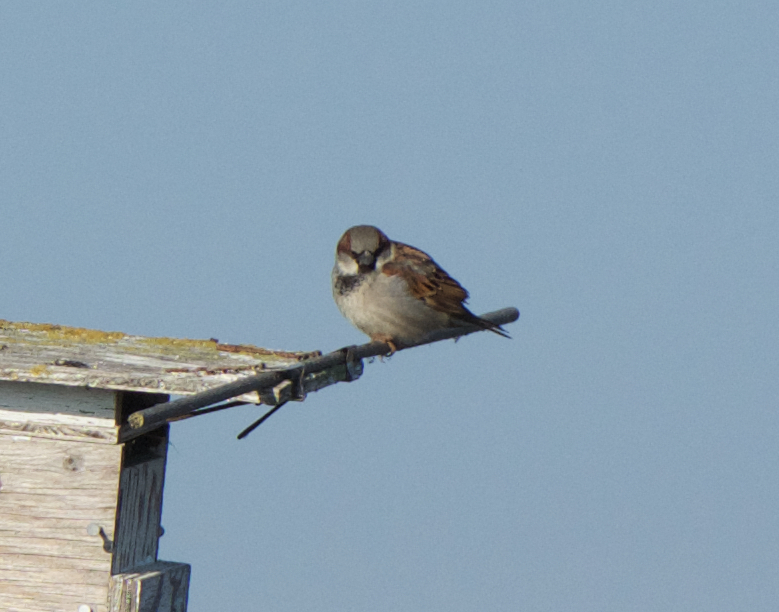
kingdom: Animalia
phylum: Chordata
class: Aves
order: Passeriformes
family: Passeridae
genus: Passer
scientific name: Passer domesticus
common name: House sparrow
